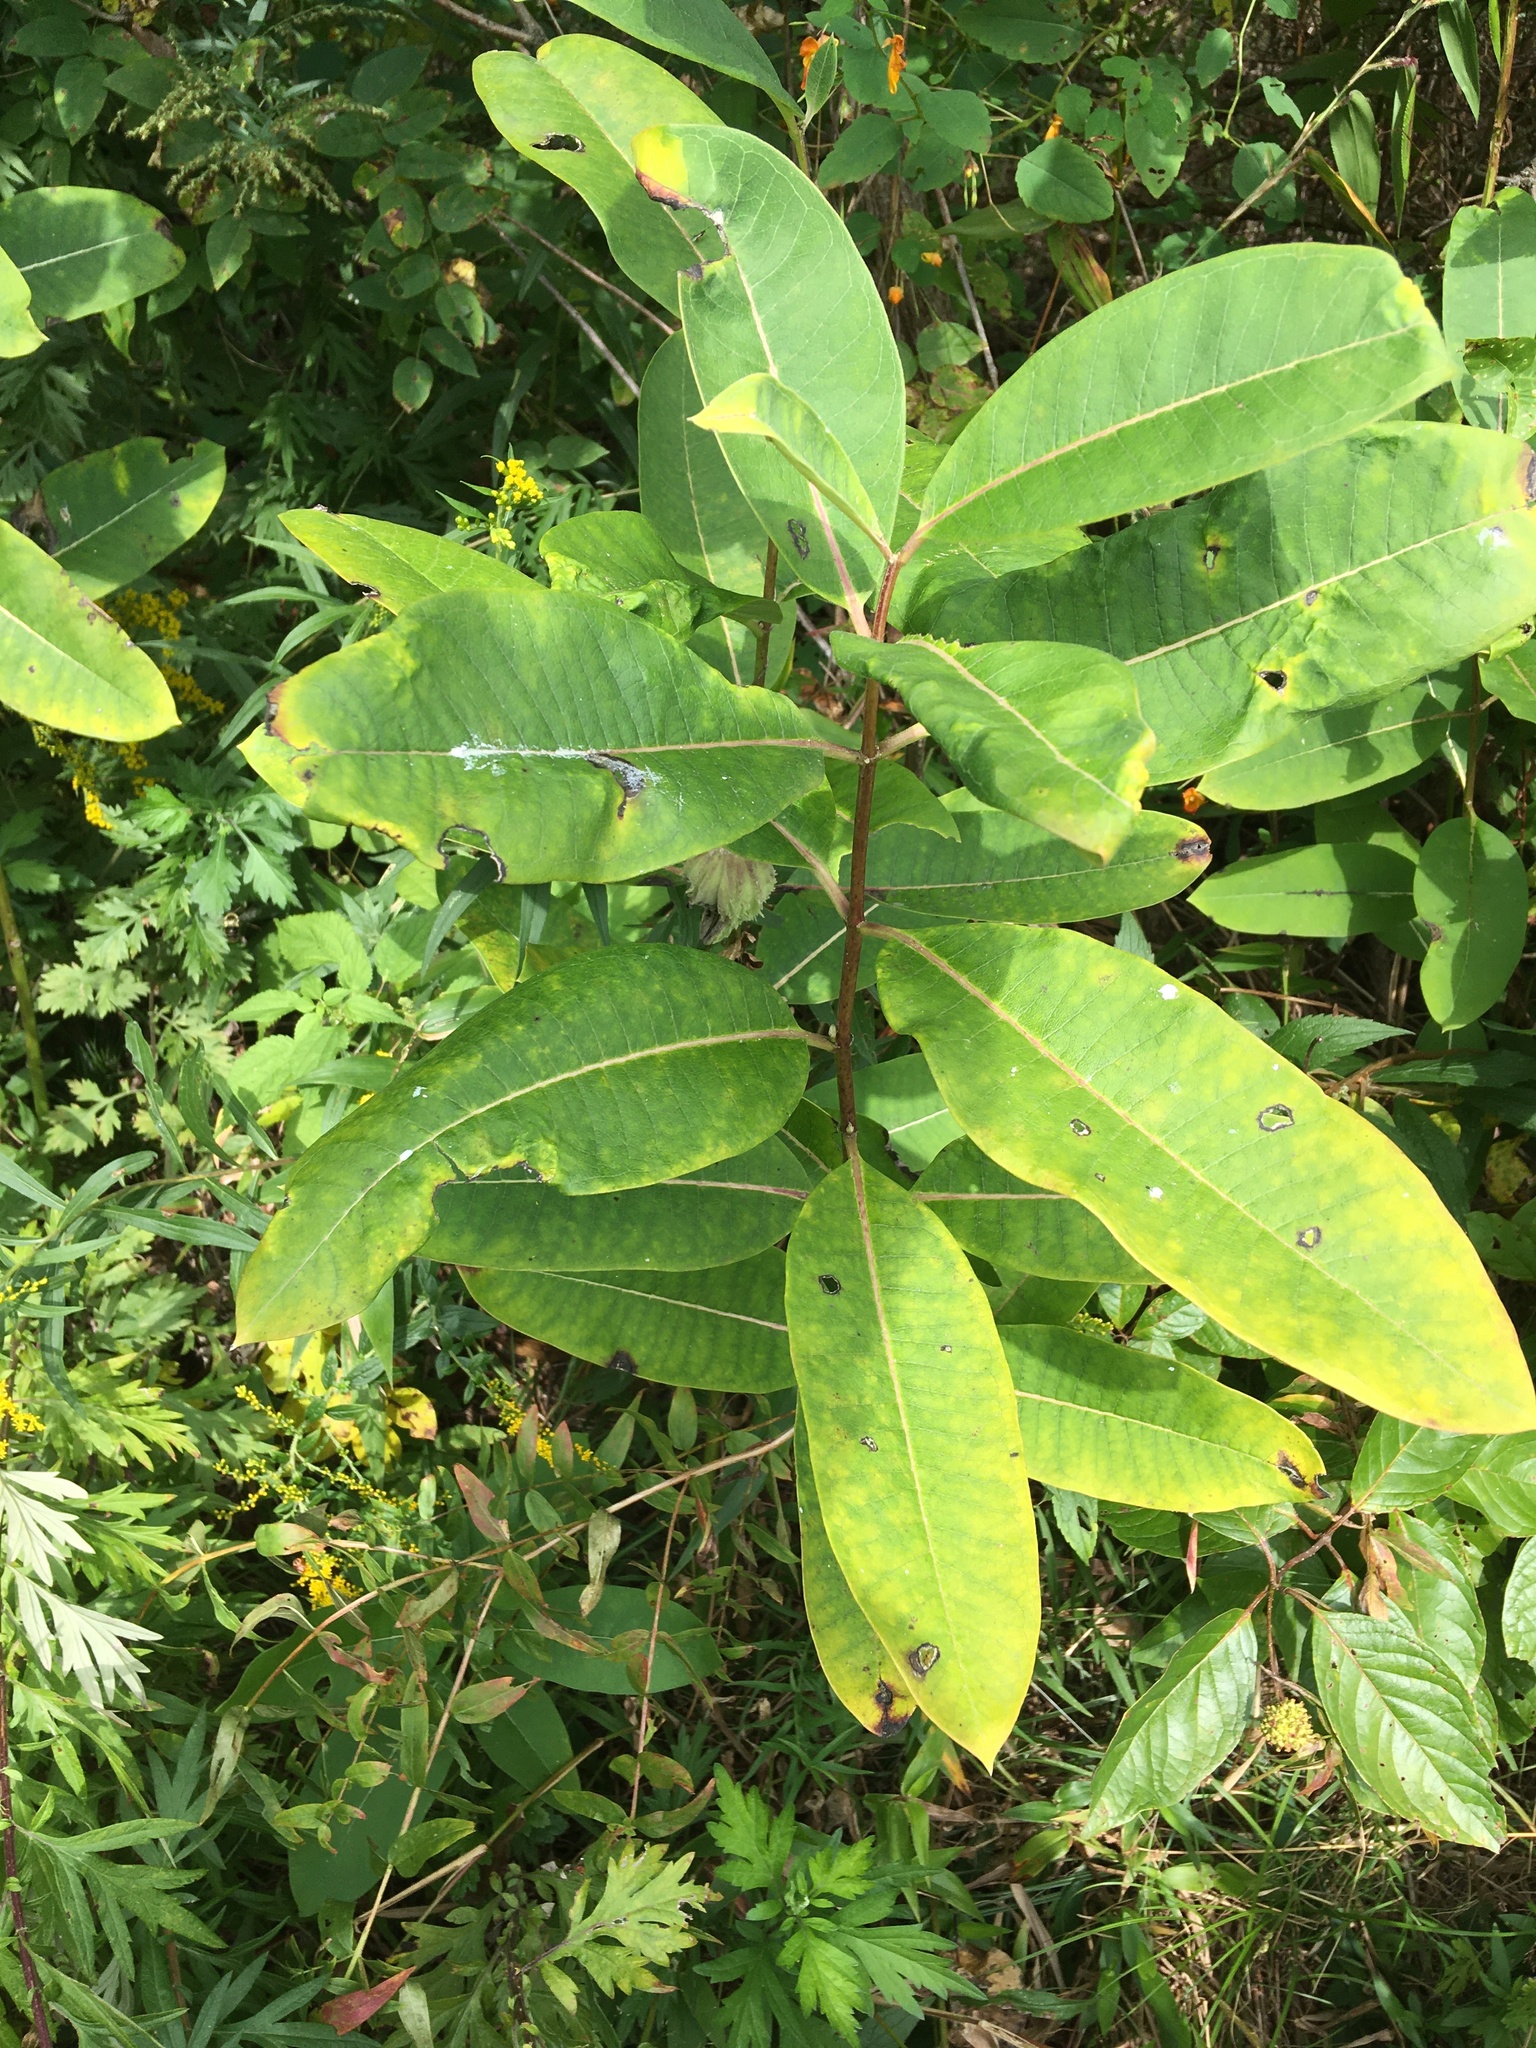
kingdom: Plantae
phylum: Tracheophyta
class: Magnoliopsida
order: Gentianales
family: Apocynaceae
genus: Asclepias
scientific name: Asclepias syriaca
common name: Common milkweed
